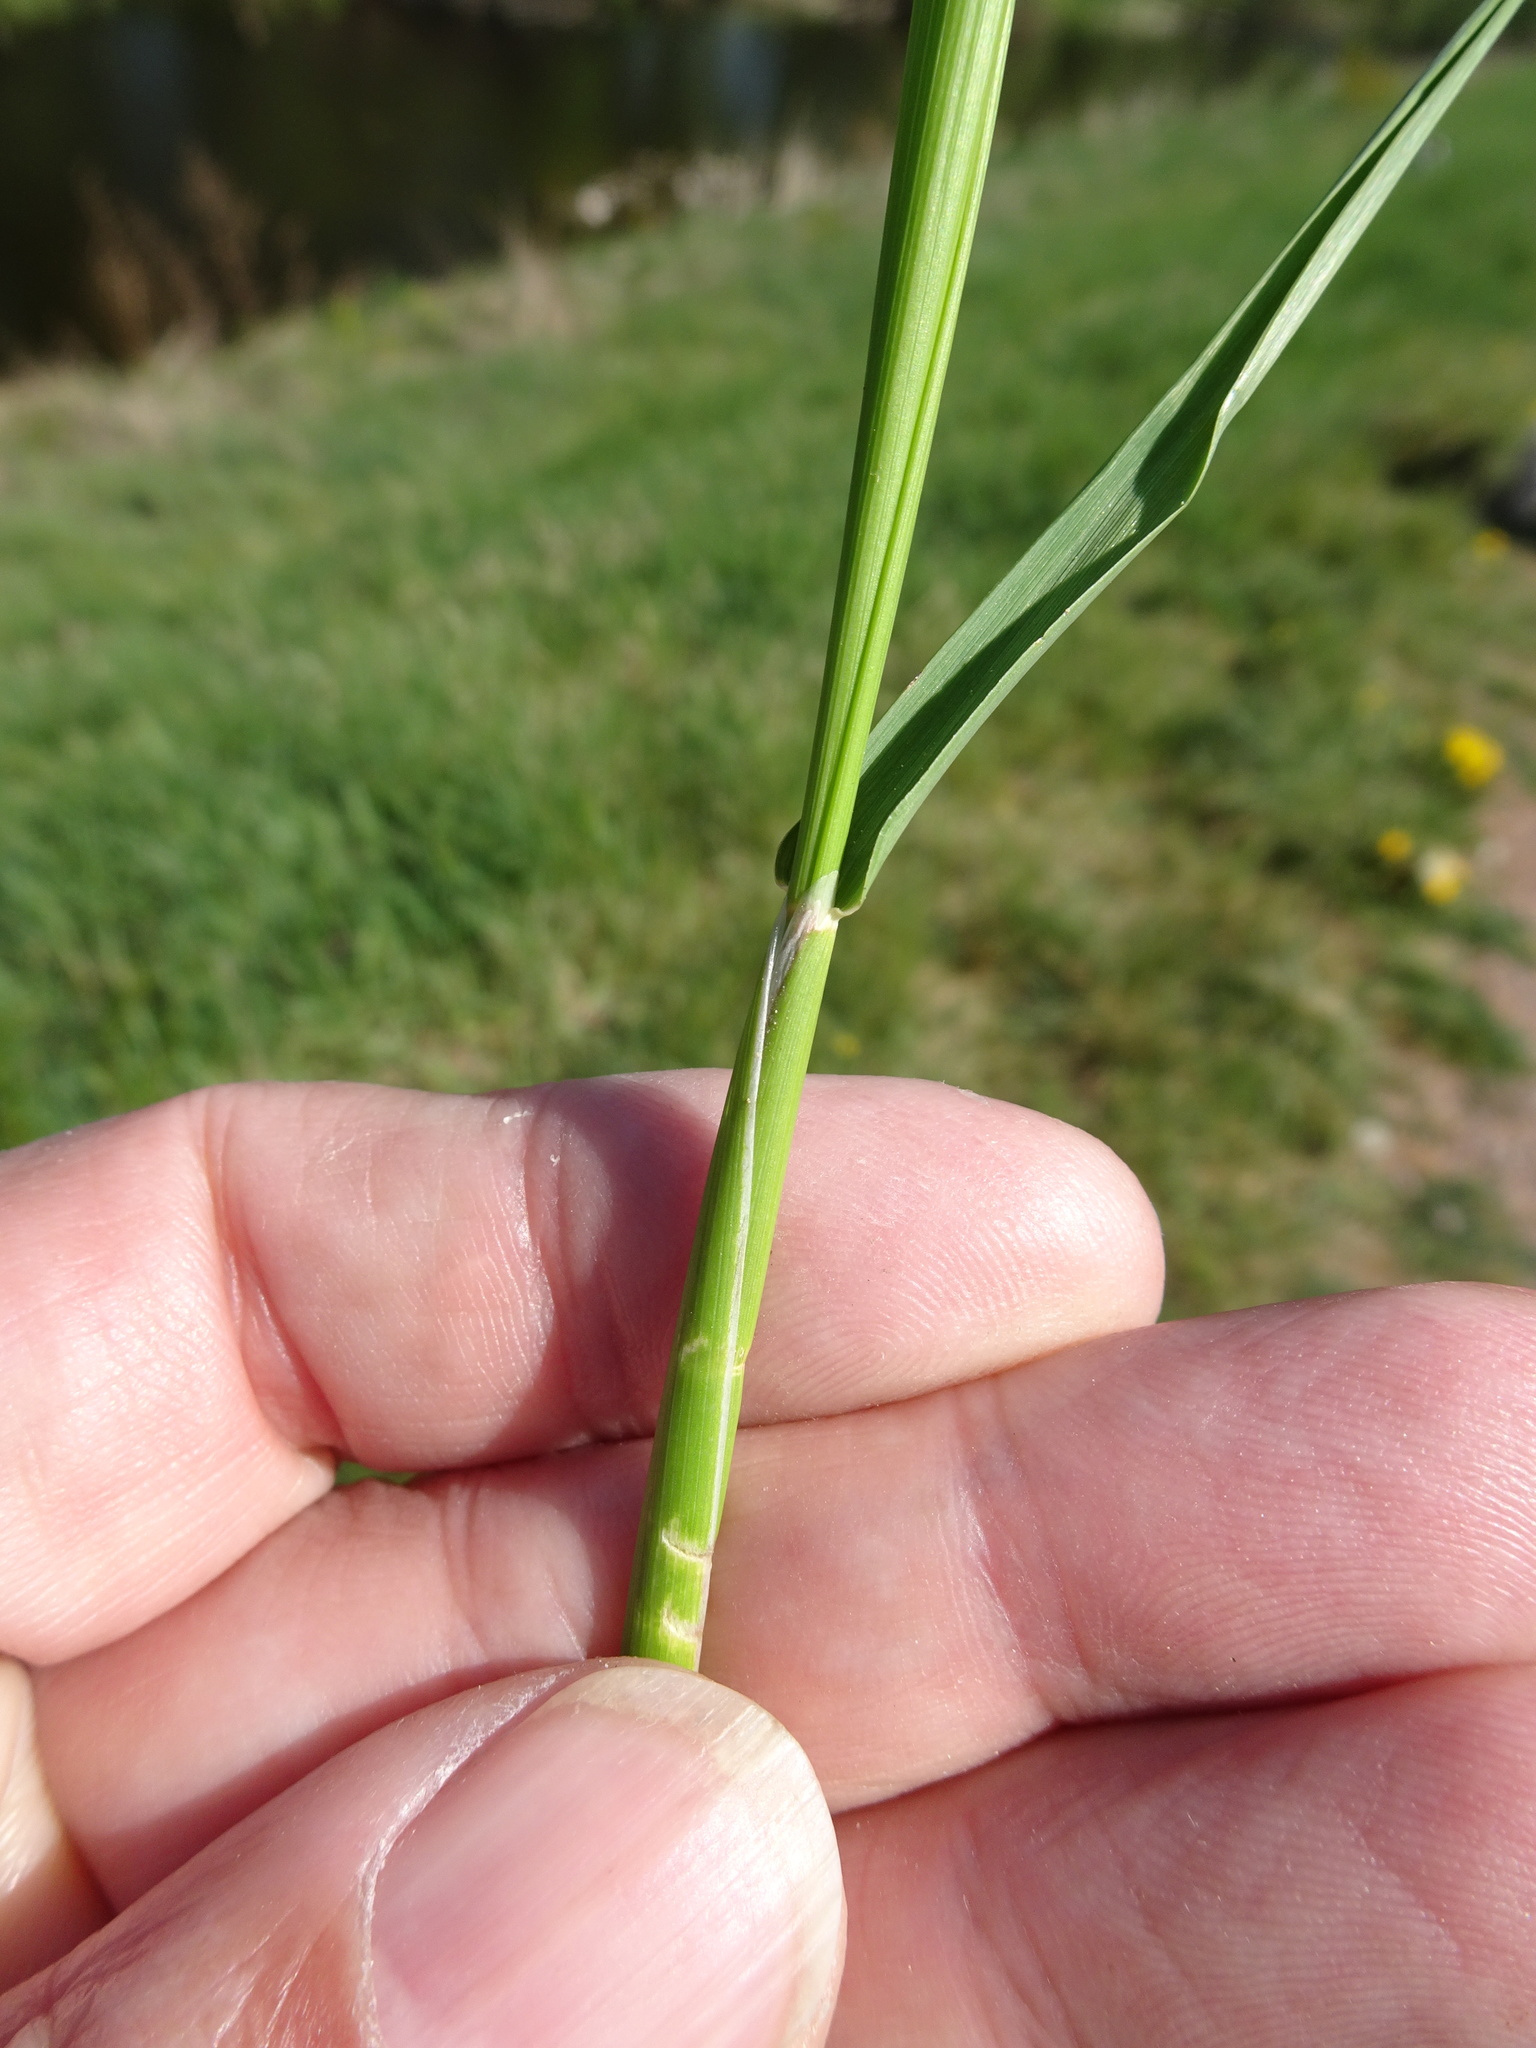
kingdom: Plantae
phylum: Tracheophyta
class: Liliopsida
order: Poales
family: Poaceae
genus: Alopecurus
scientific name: Alopecurus pratensis
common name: Meadow foxtail
